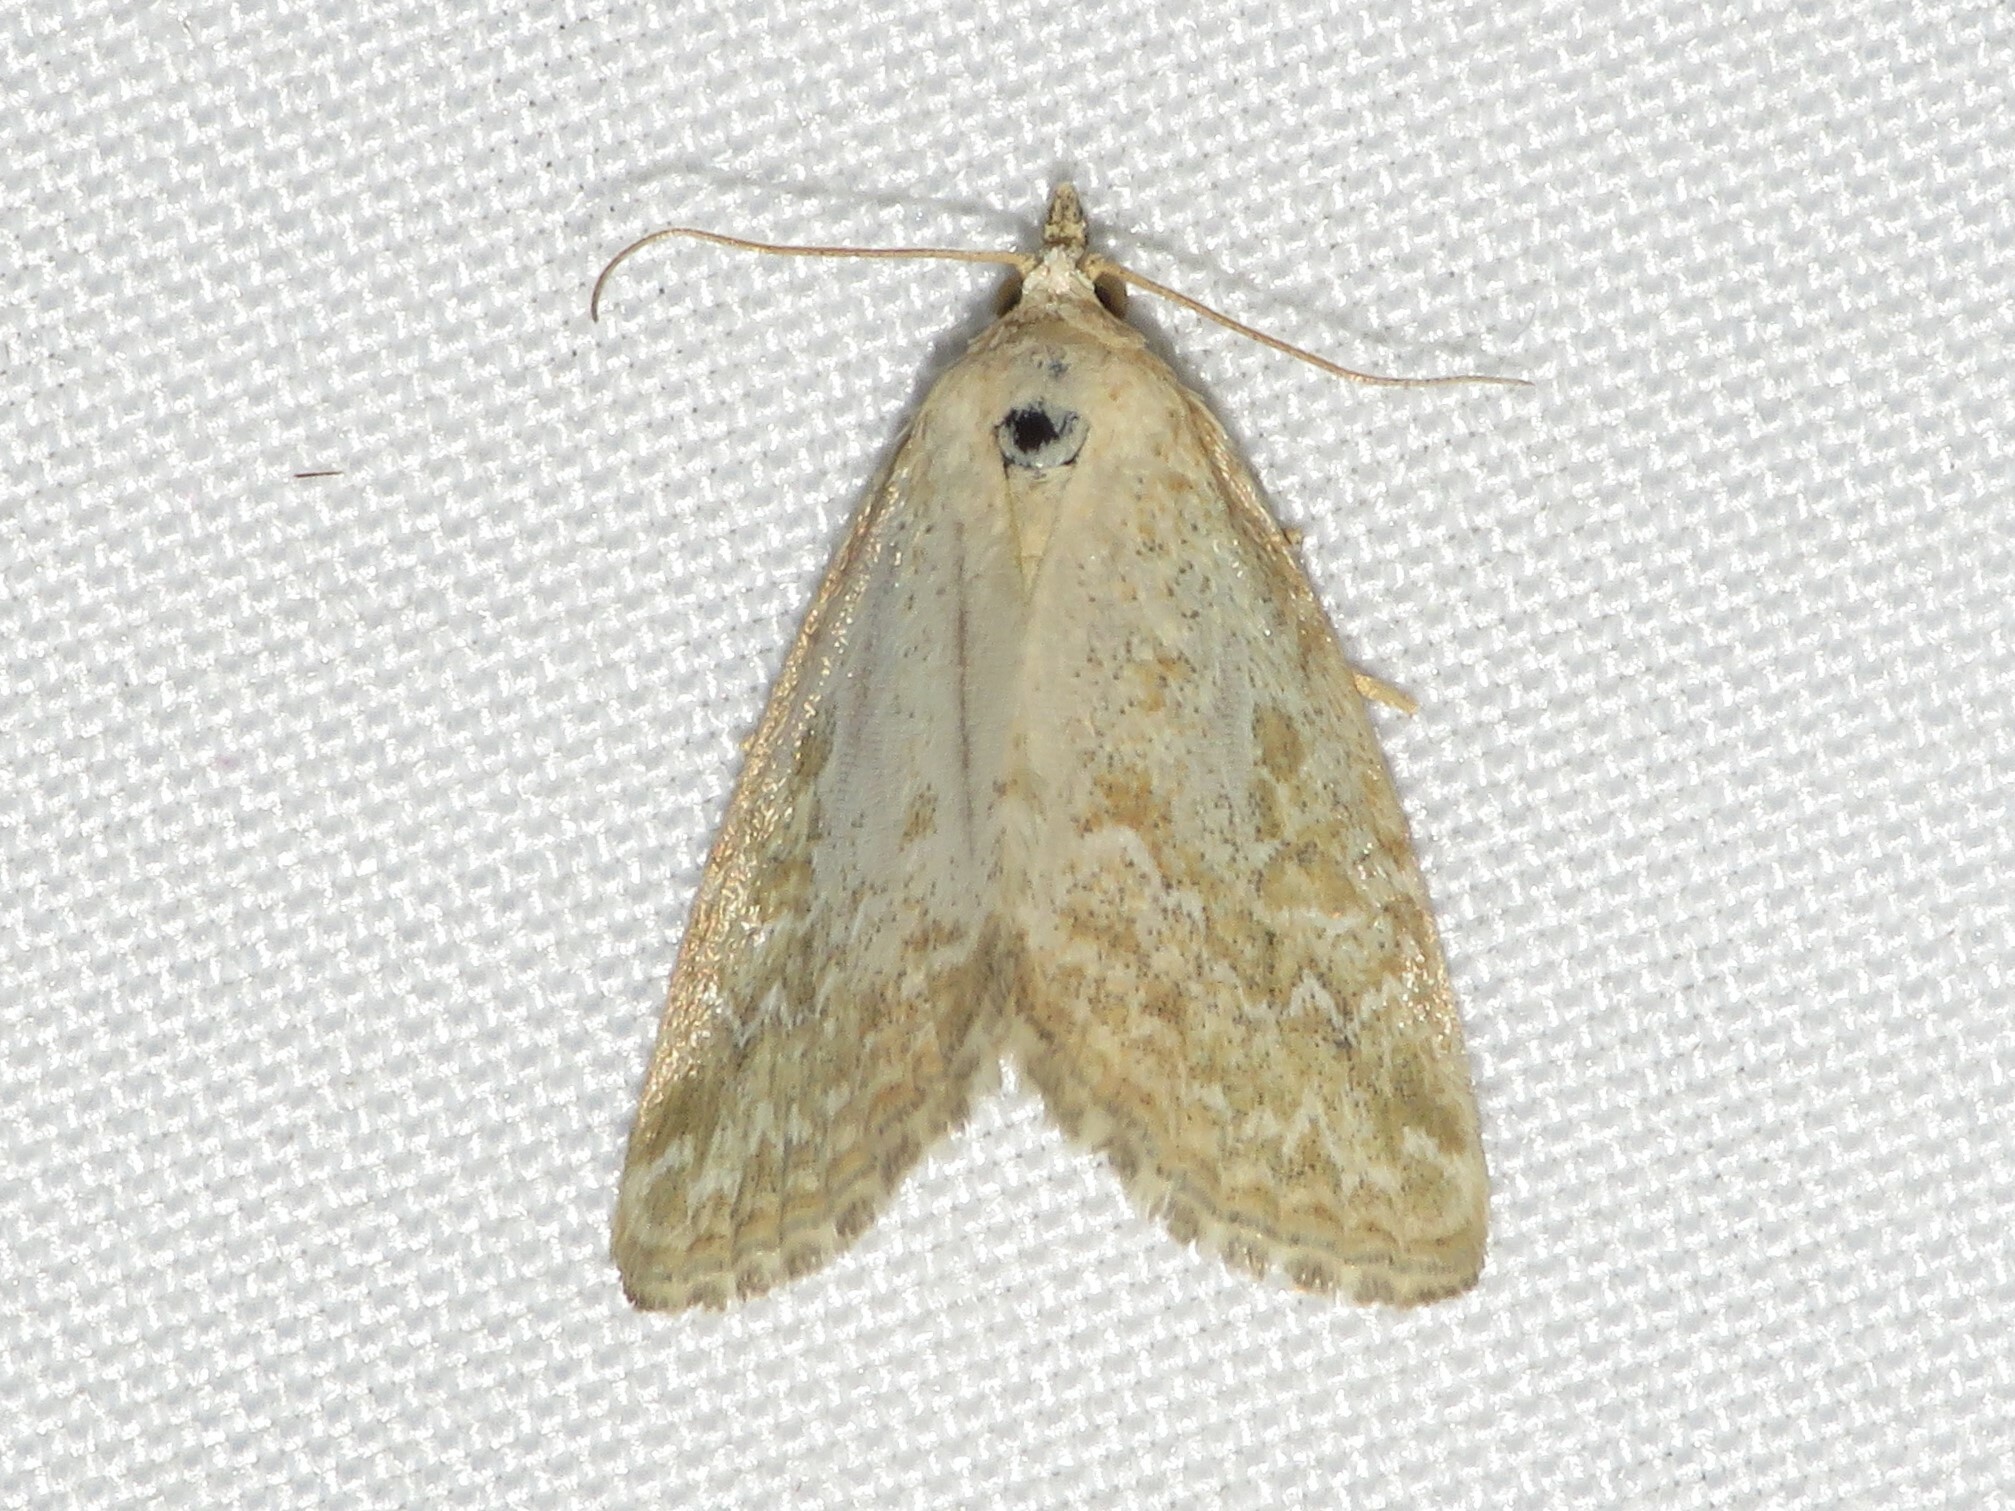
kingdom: Animalia
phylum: Arthropoda
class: Insecta
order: Lepidoptera
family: Noctuidae
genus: Protodeltote
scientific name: Protodeltote albidula
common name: Pale glyph
